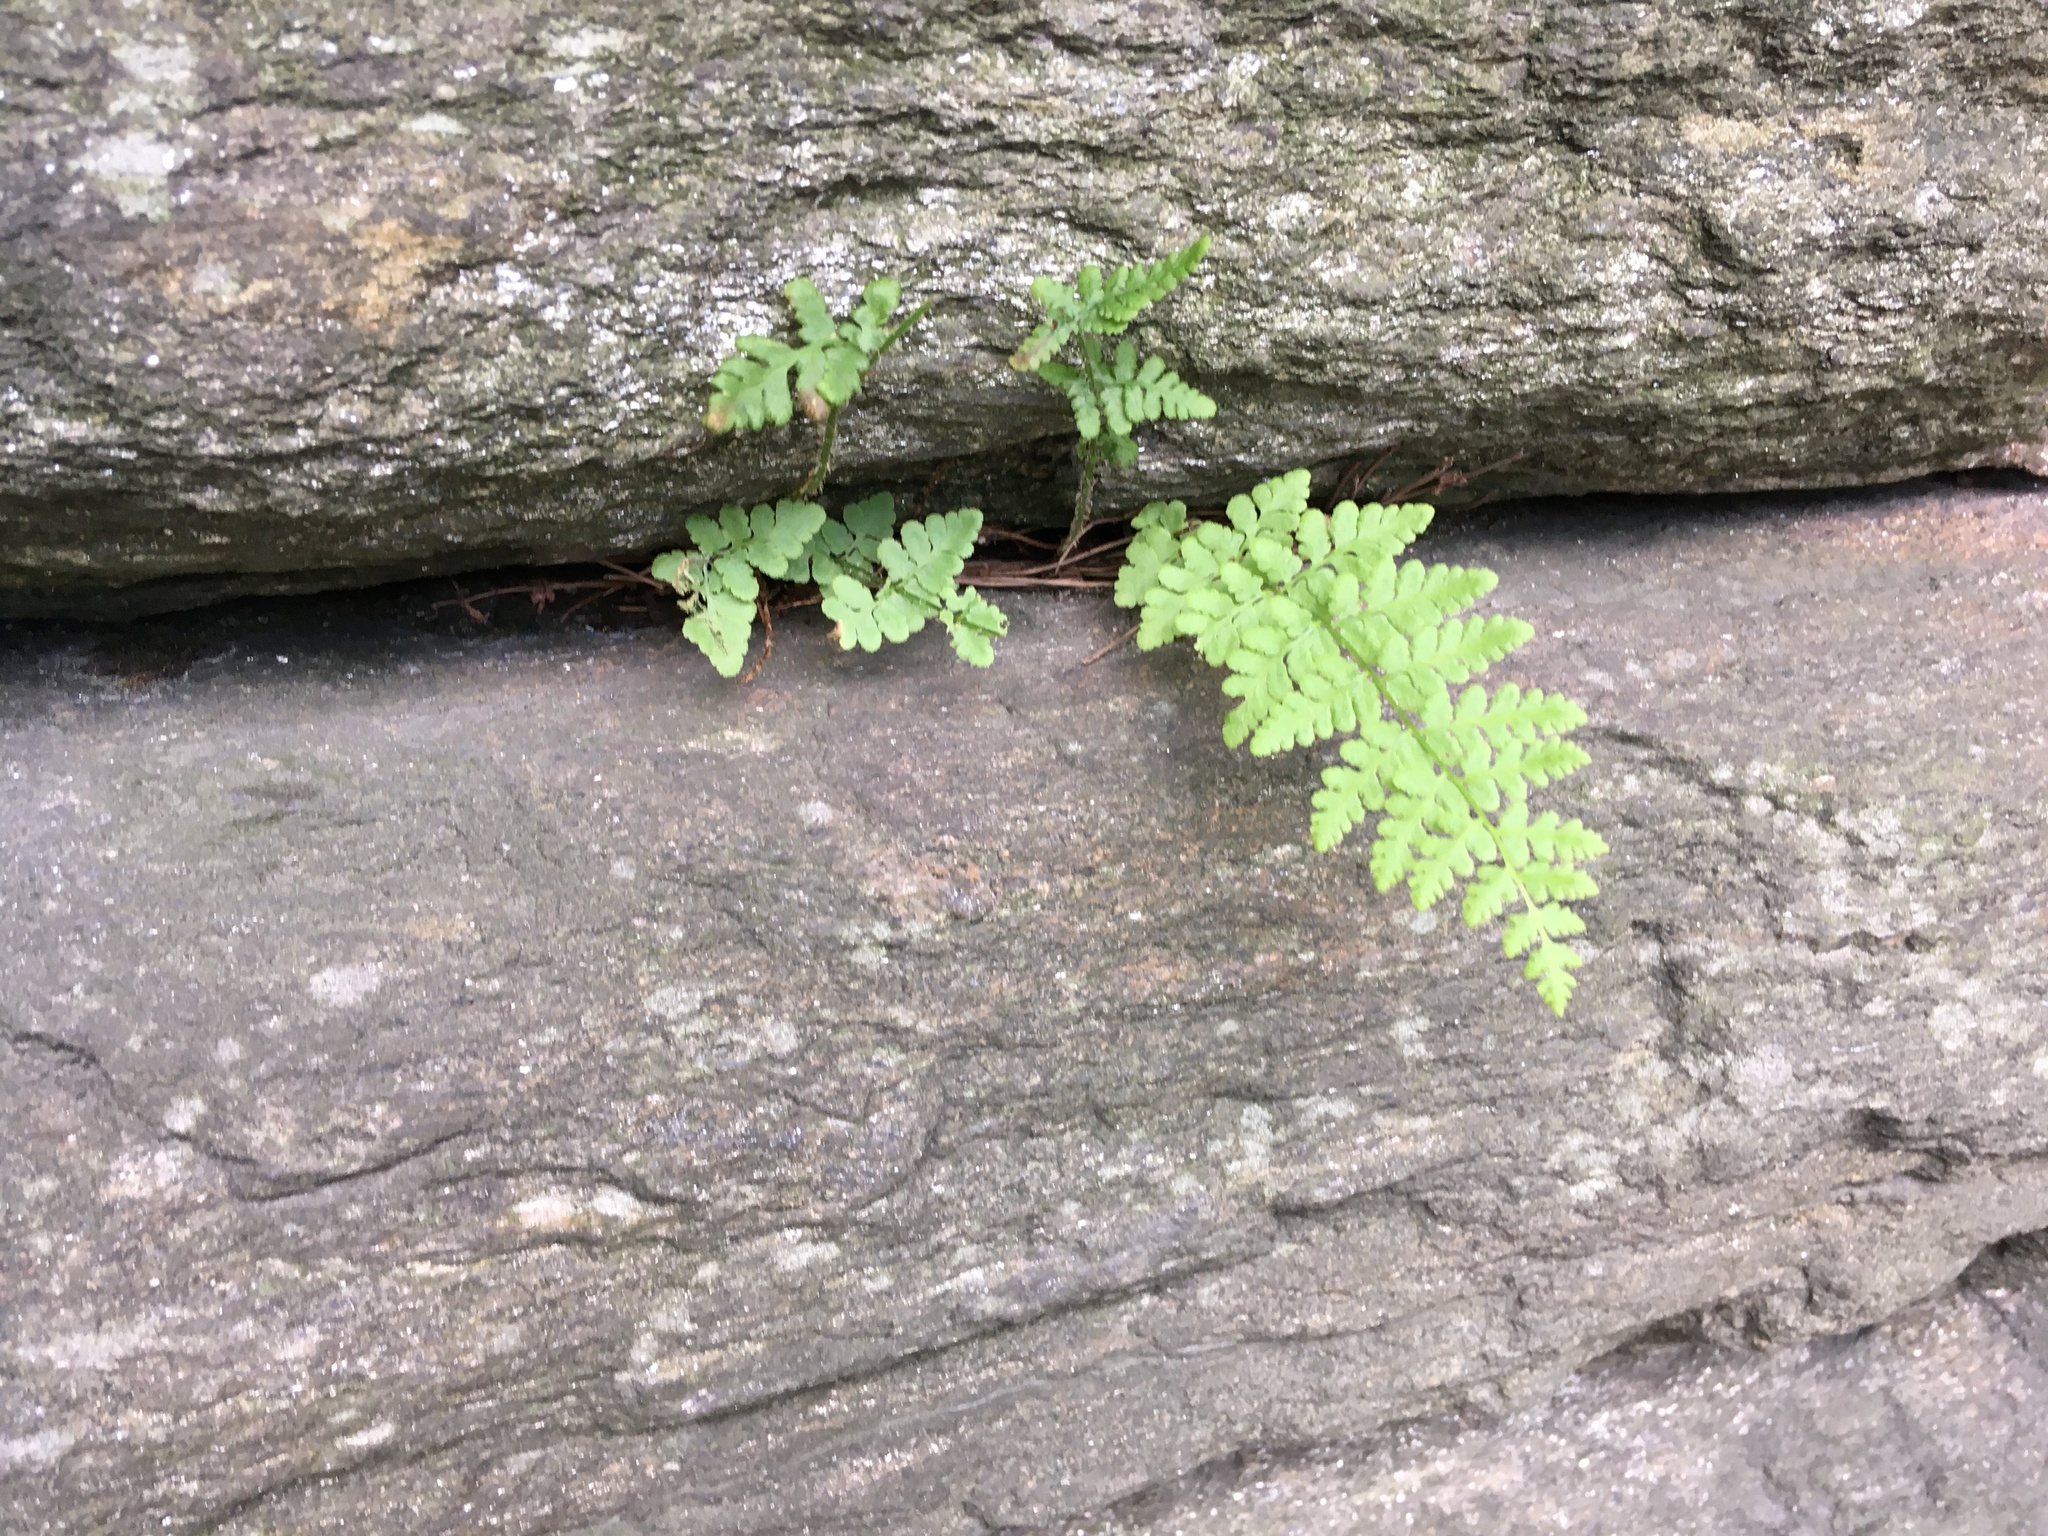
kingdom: Plantae
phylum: Tracheophyta
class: Polypodiopsida
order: Polypodiales
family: Woodsiaceae
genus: Physematium
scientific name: Physematium obtusum
